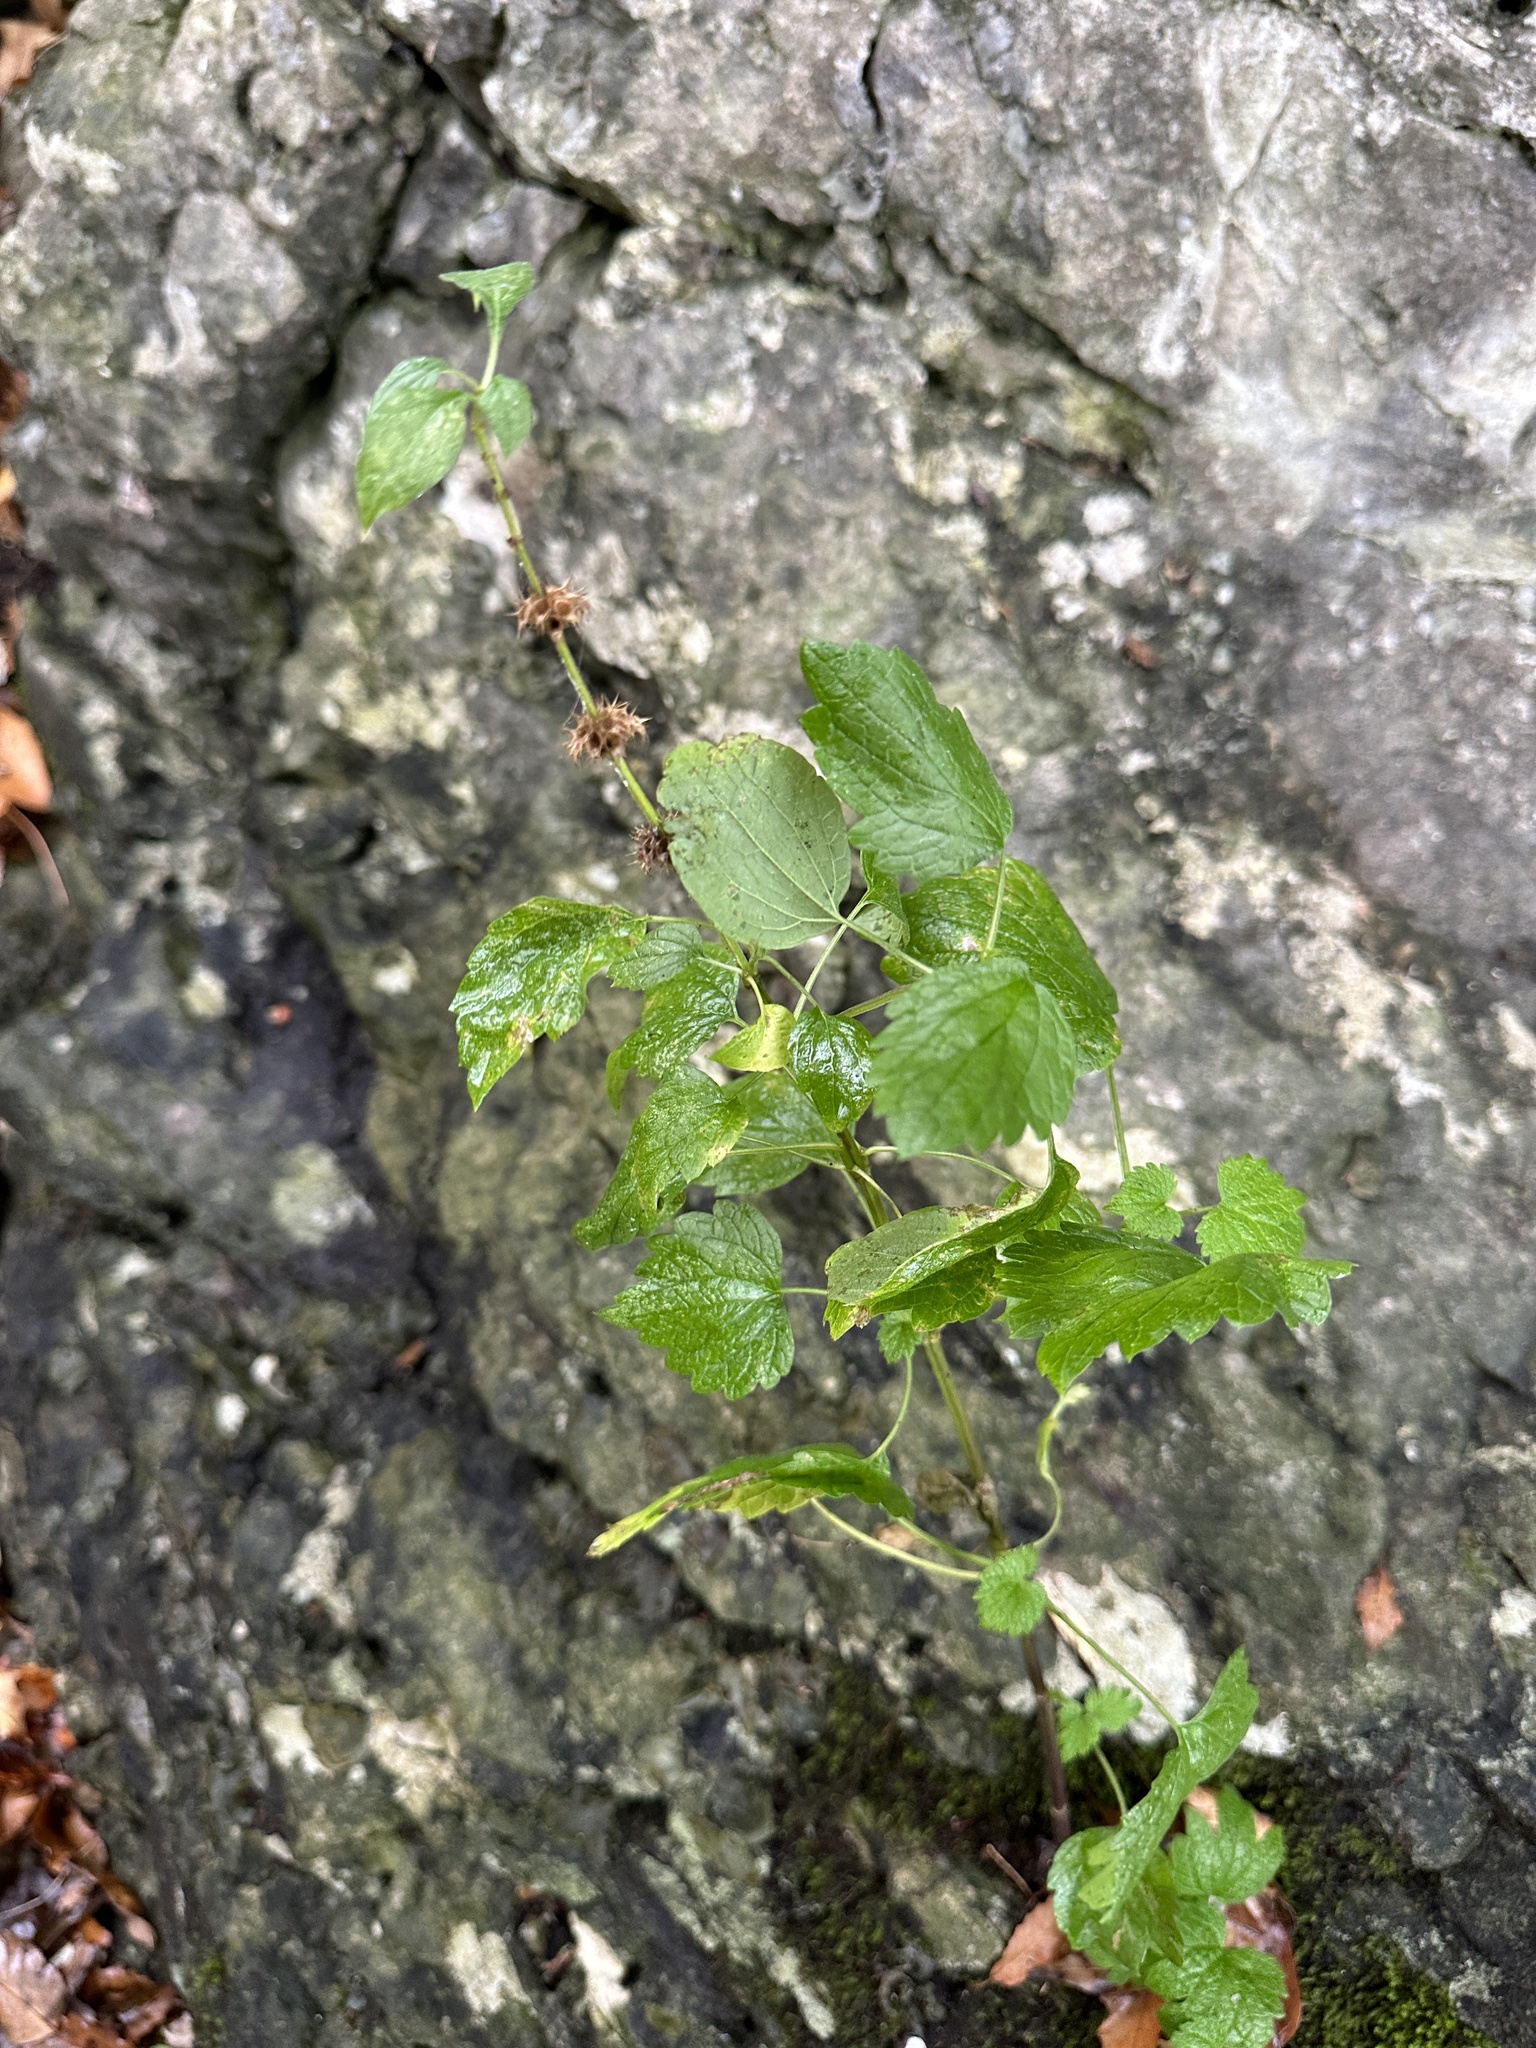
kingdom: Plantae
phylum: Tracheophyta
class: Magnoliopsida
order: Lamiales
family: Lamiaceae
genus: Leonurus
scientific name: Leonurus cardiaca
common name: Motherwort
